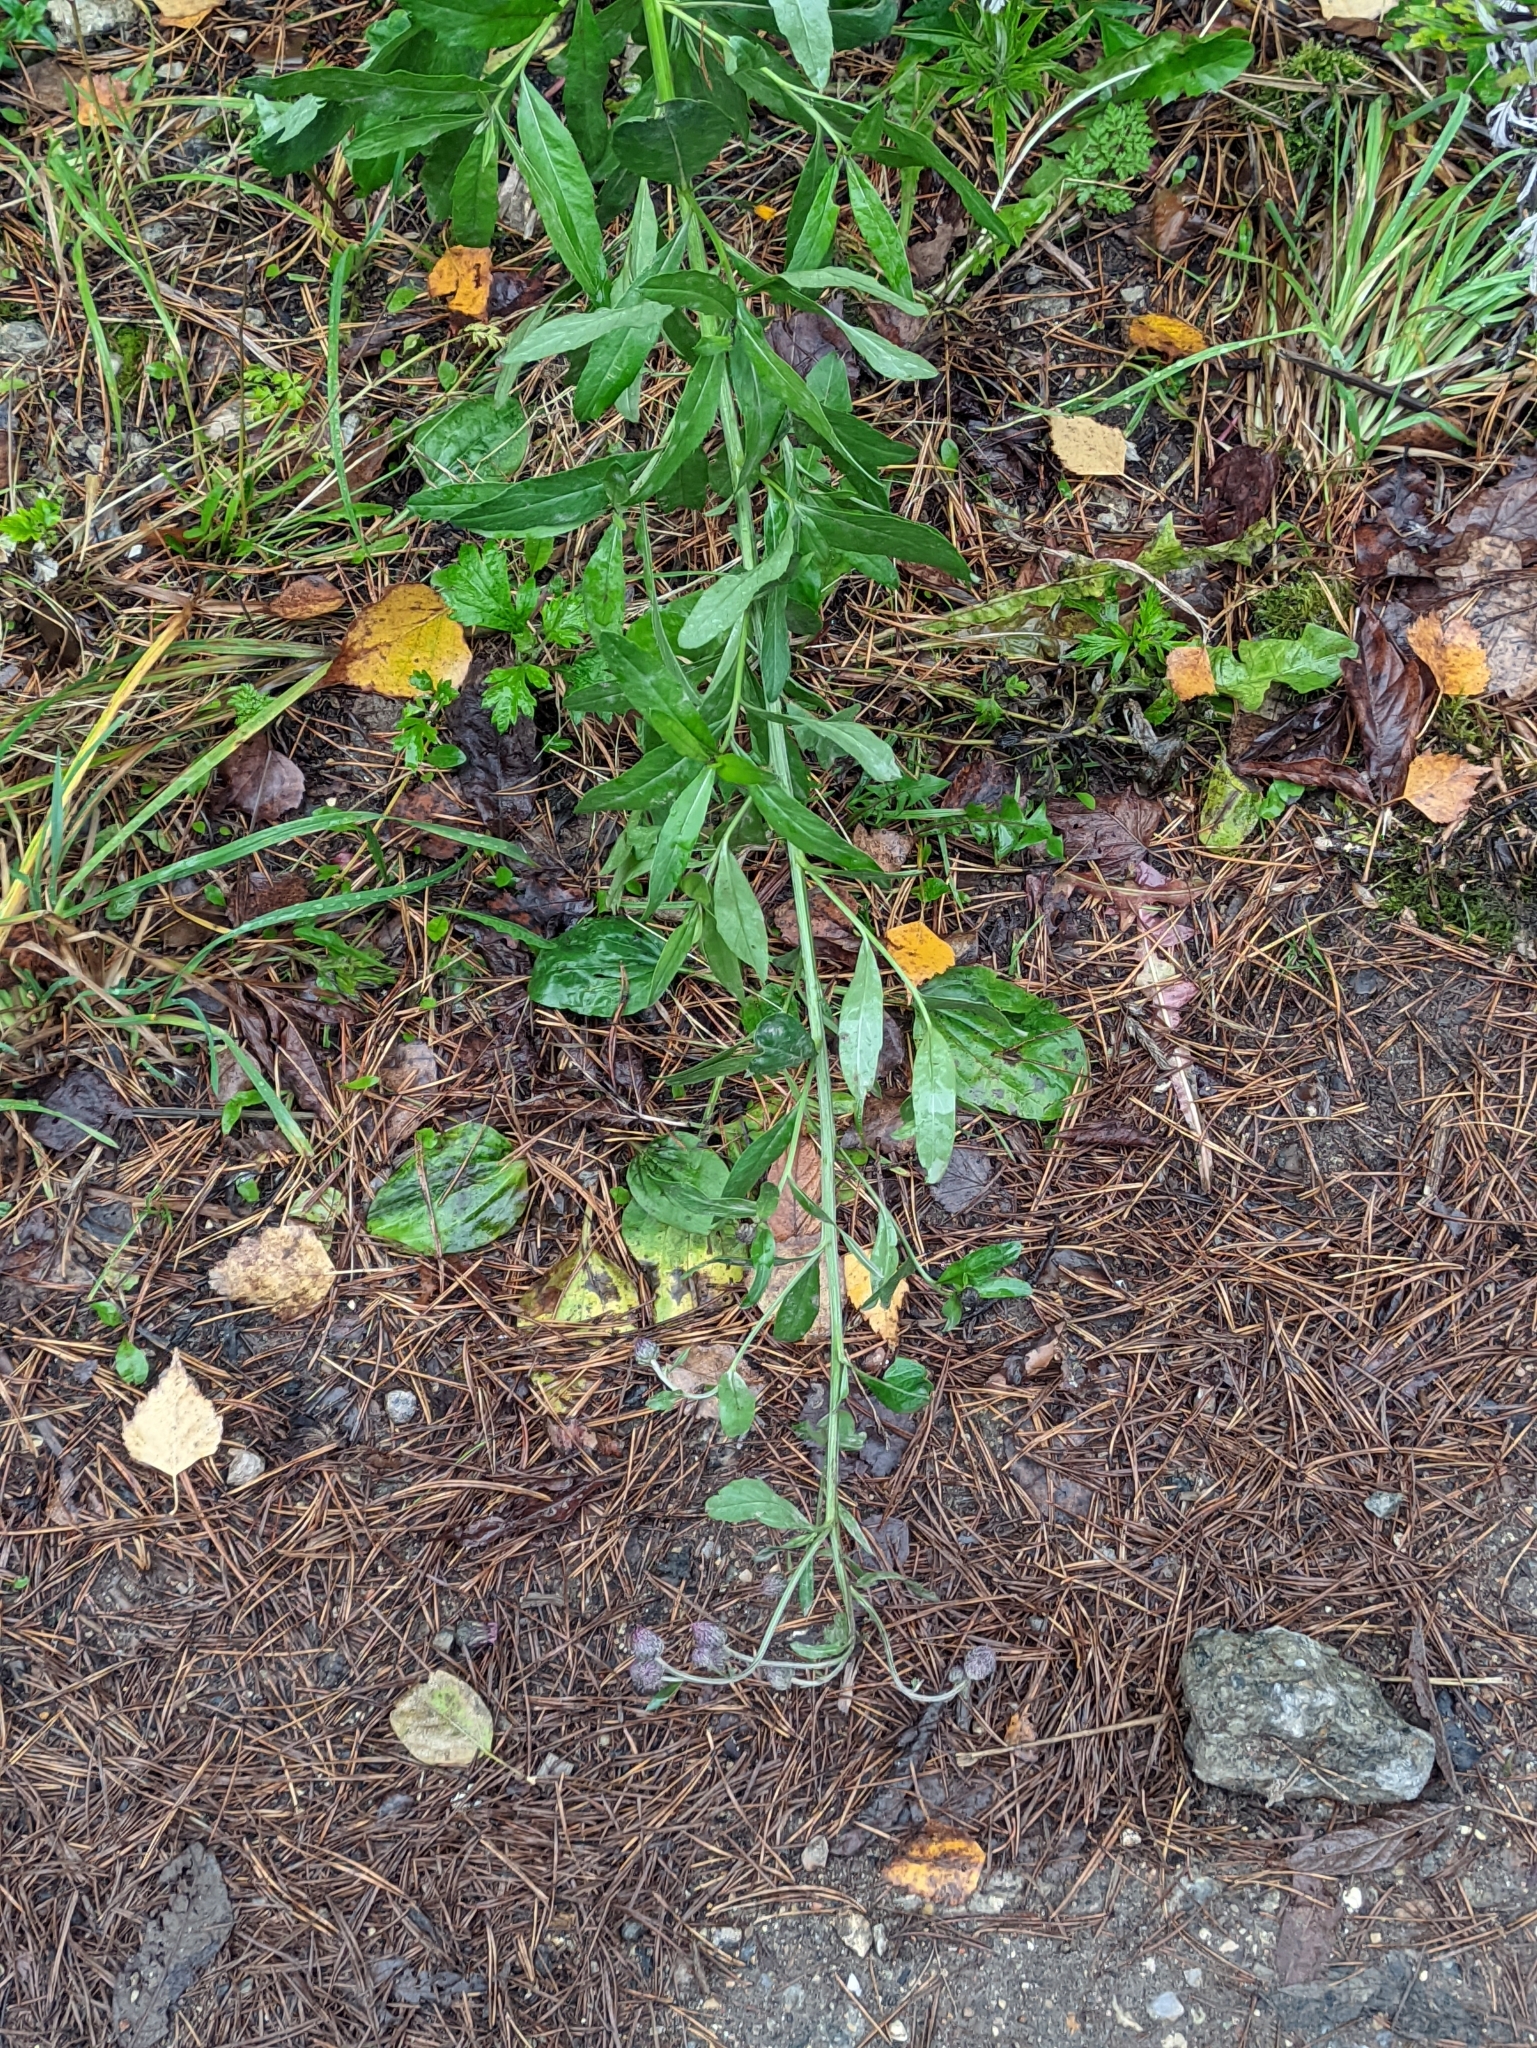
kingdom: Plantae
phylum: Tracheophyta
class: Magnoliopsida
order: Asterales
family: Asteraceae
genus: Cirsium
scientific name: Cirsium arvense
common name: Creeping thistle
